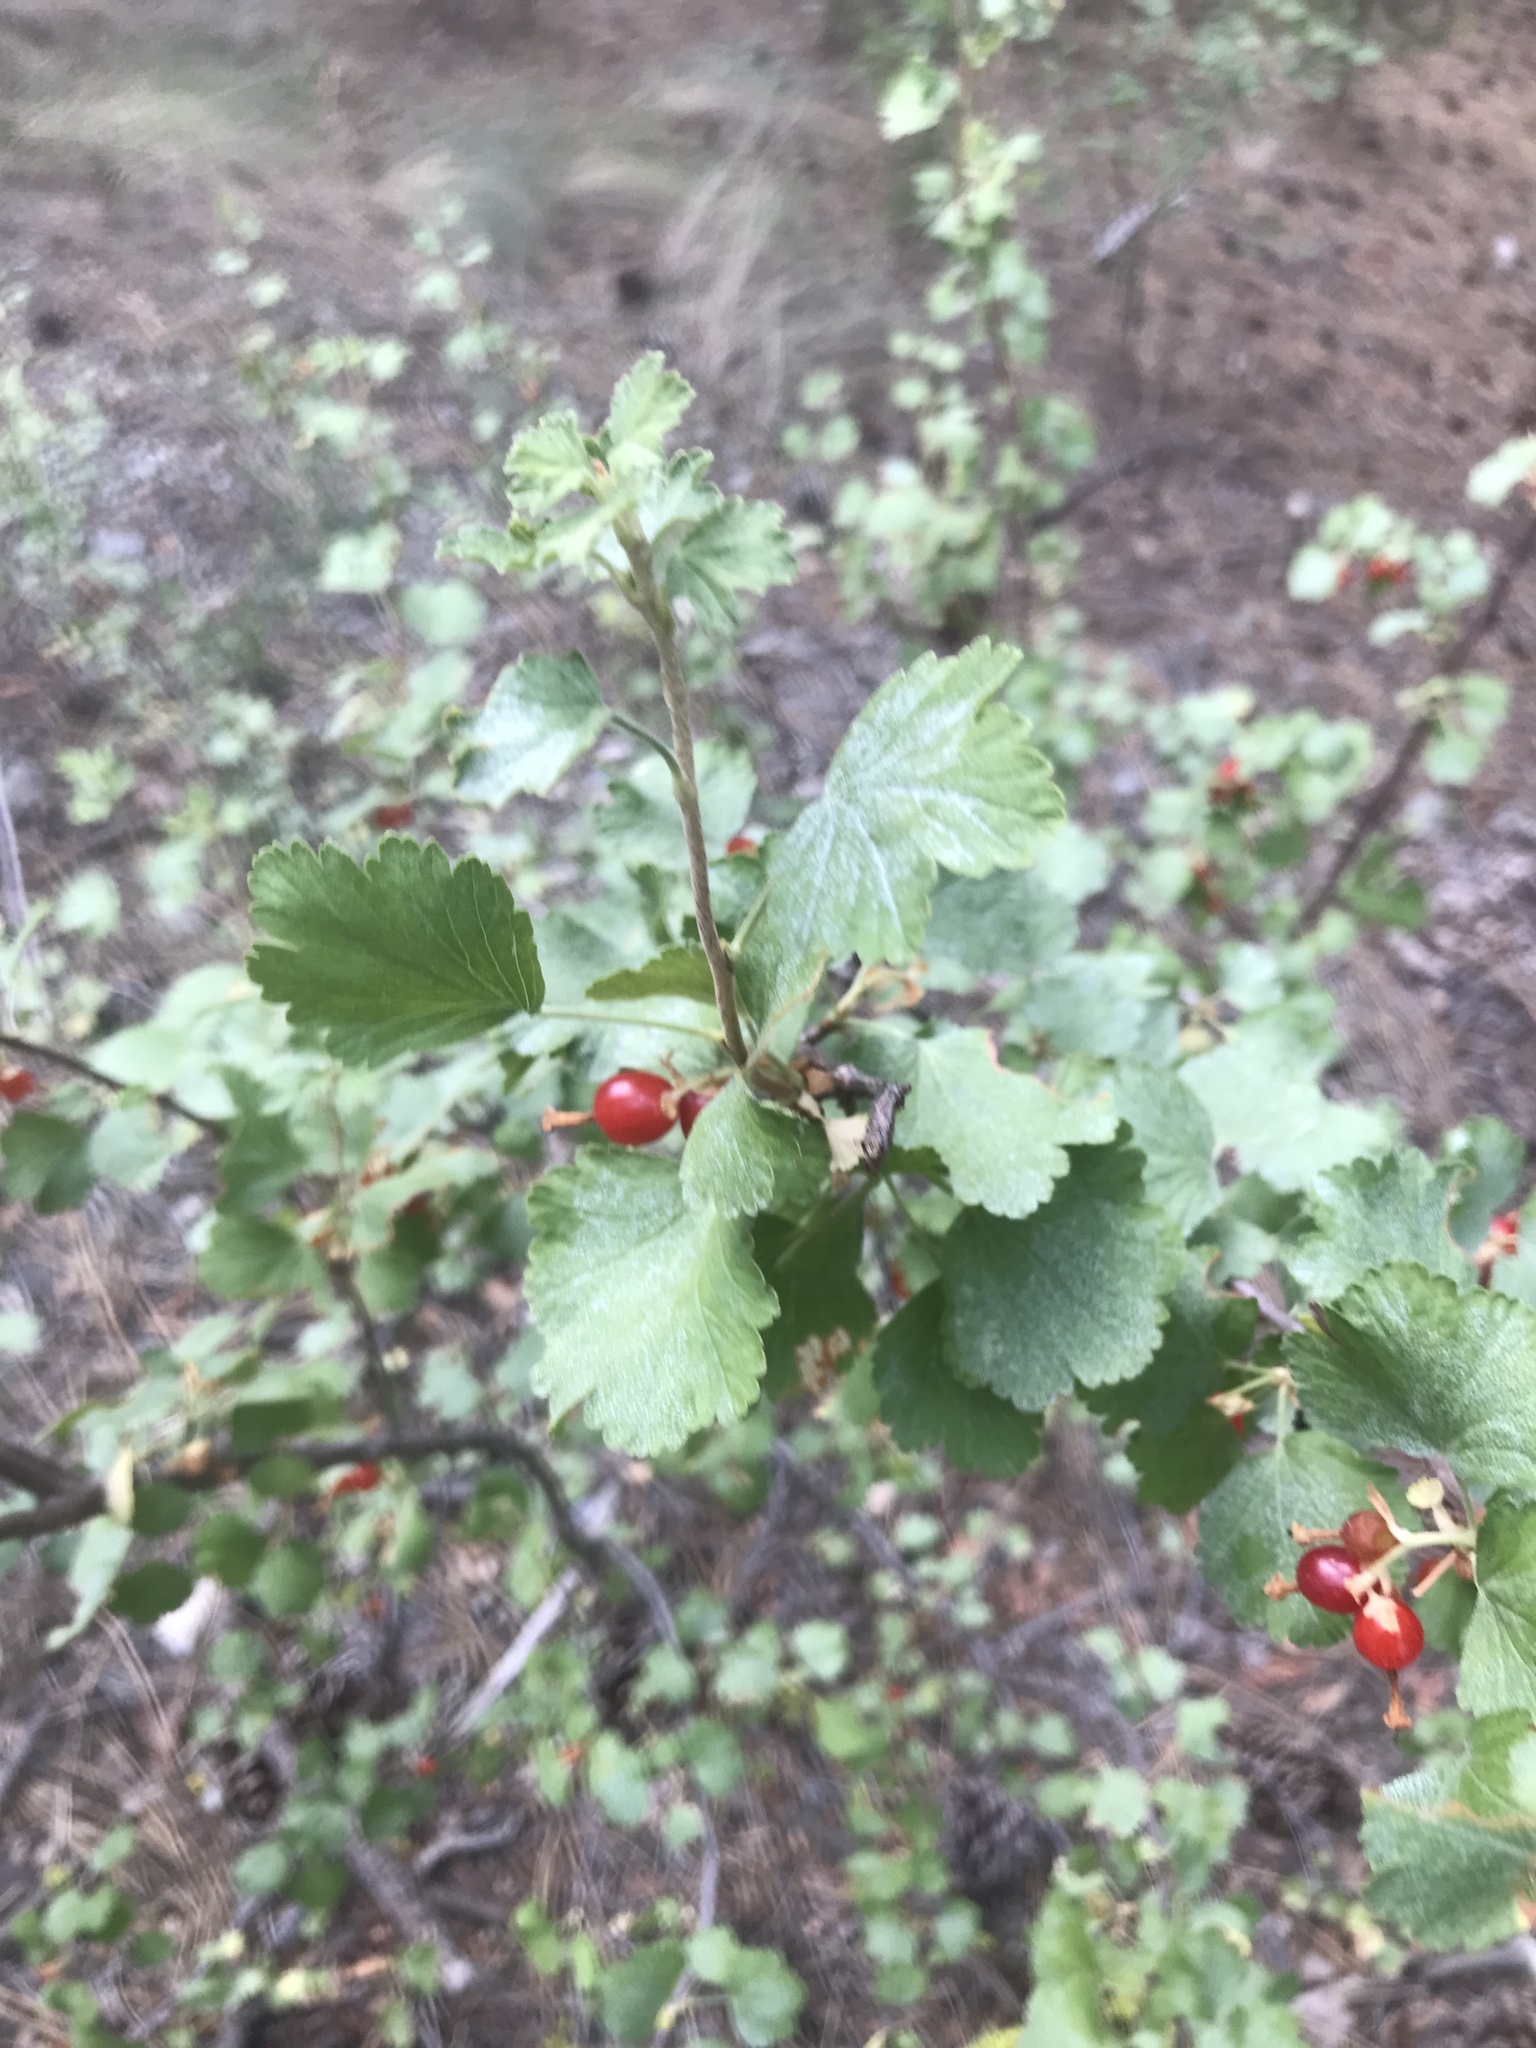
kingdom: Plantae
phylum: Tracheophyta
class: Magnoliopsida
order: Saxifragales
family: Grossulariaceae
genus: Ribes
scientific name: Ribes cereum
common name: Wax currant
